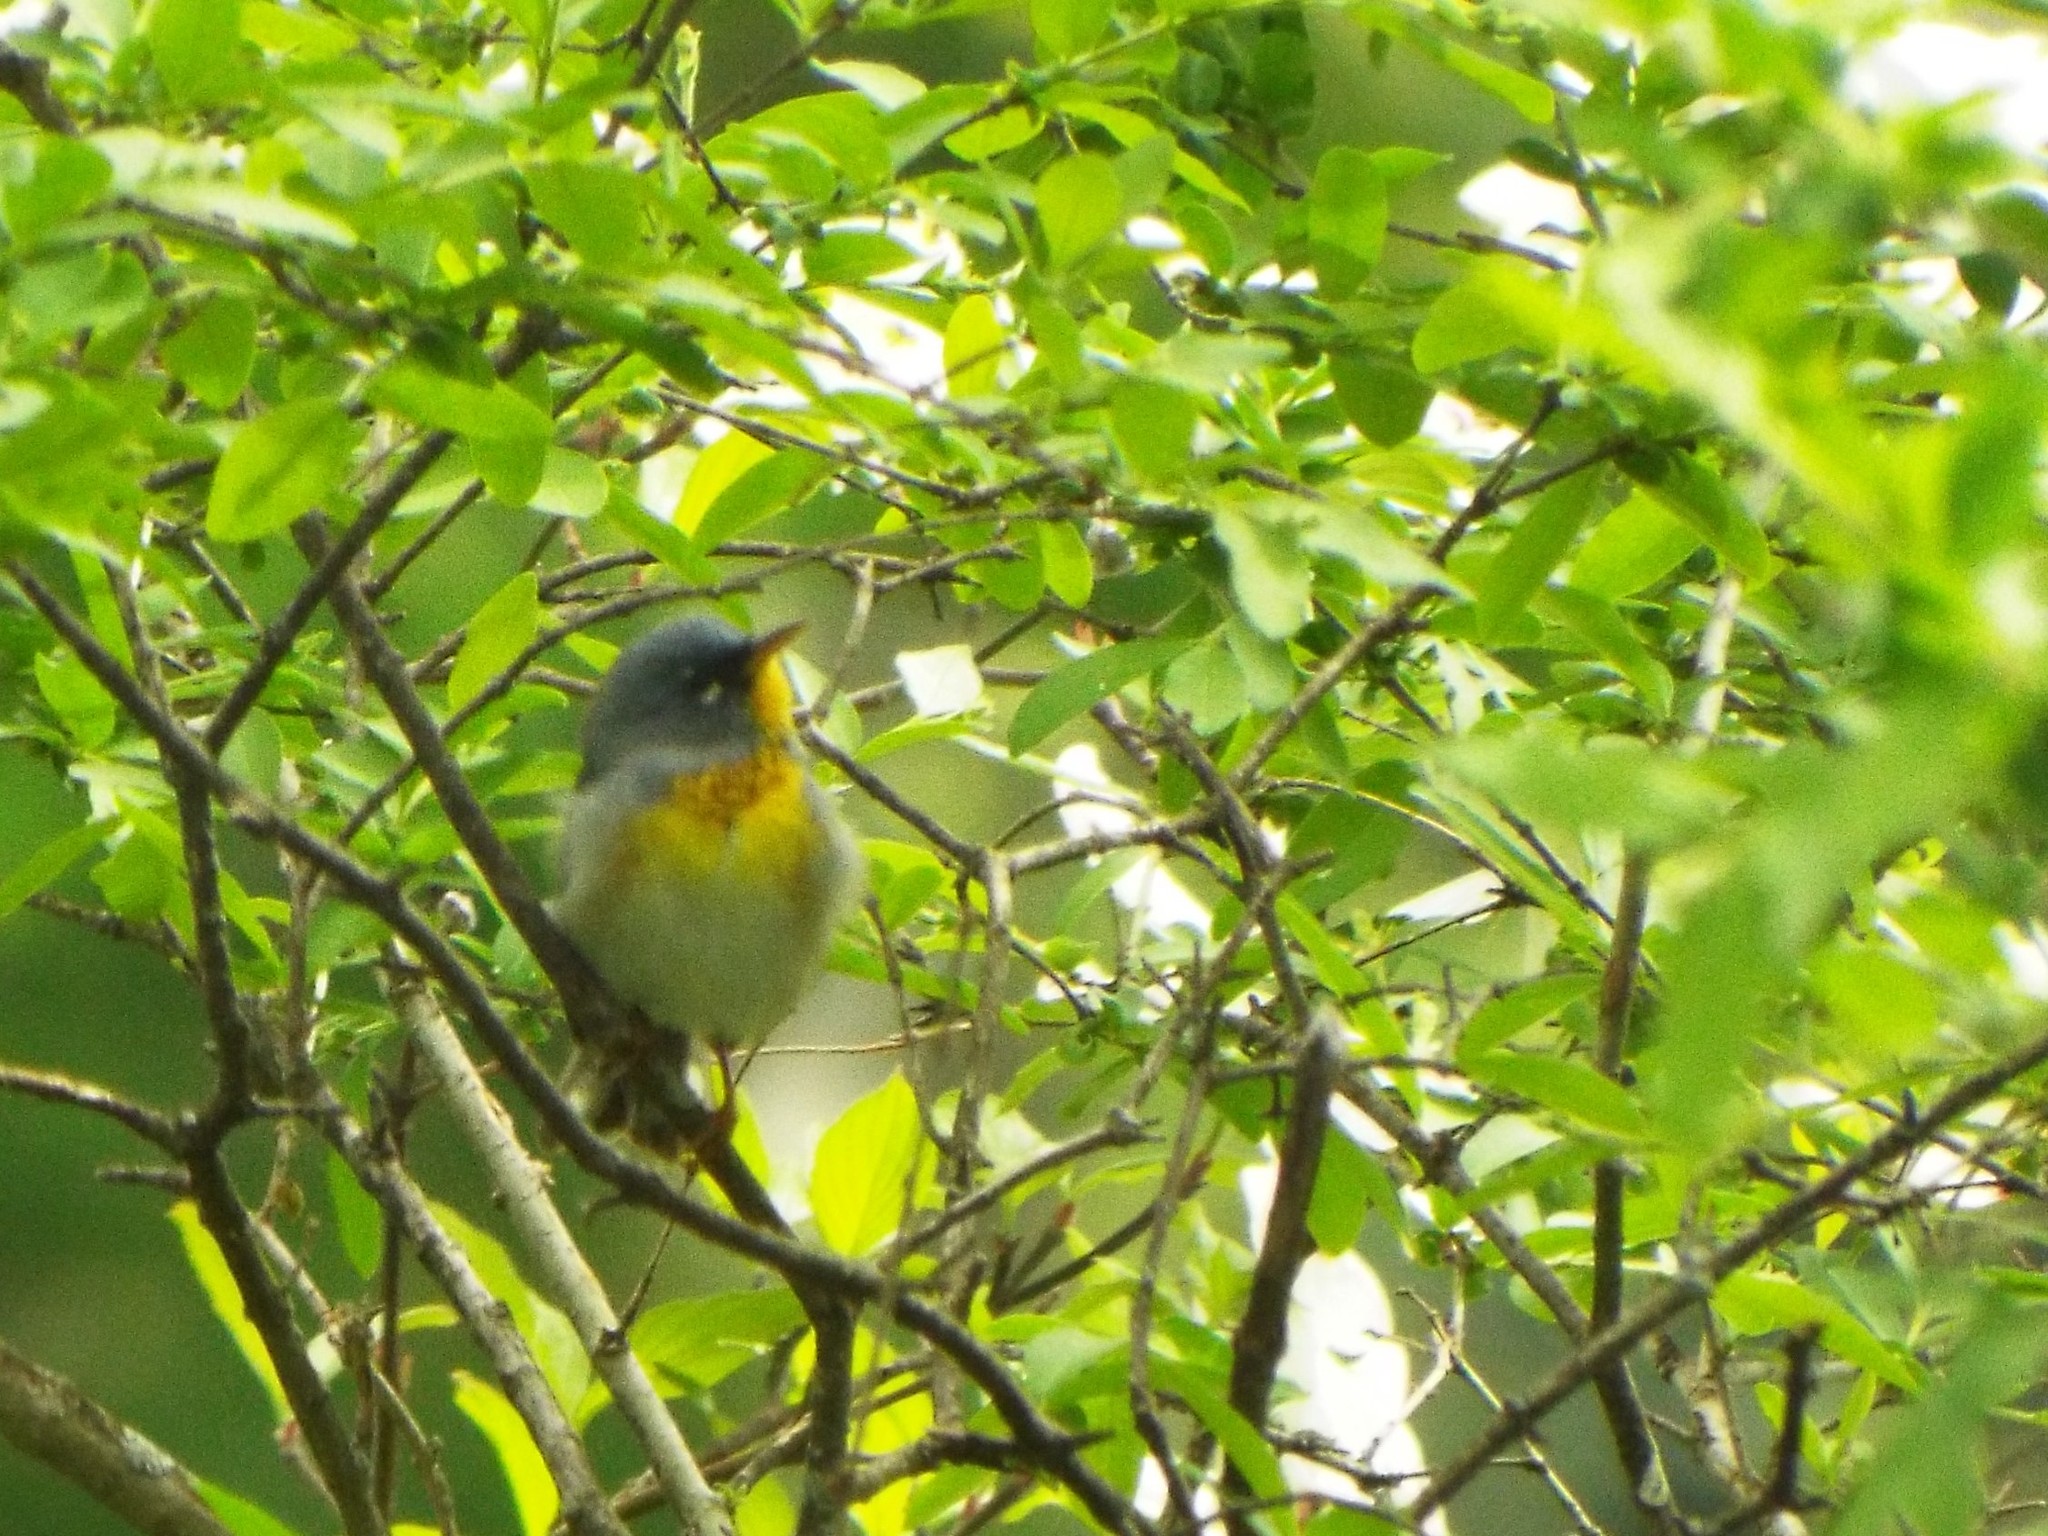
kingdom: Animalia
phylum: Chordata
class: Aves
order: Passeriformes
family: Parulidae
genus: Setophaga
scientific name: Setophaga americana
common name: Northern parula
